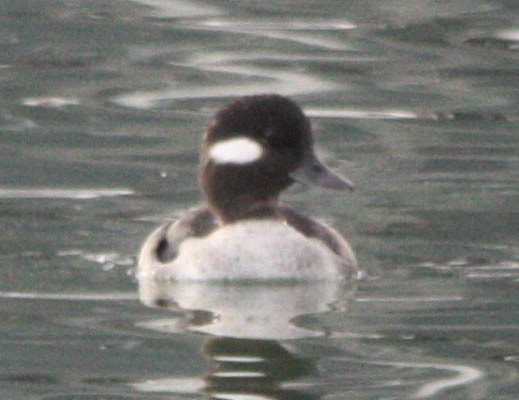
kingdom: Animalia
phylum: Chordata
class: Aves
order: Anseriformes
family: Anatidae
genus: Bucephala
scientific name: Bucephala albeola
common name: Bufflehead
